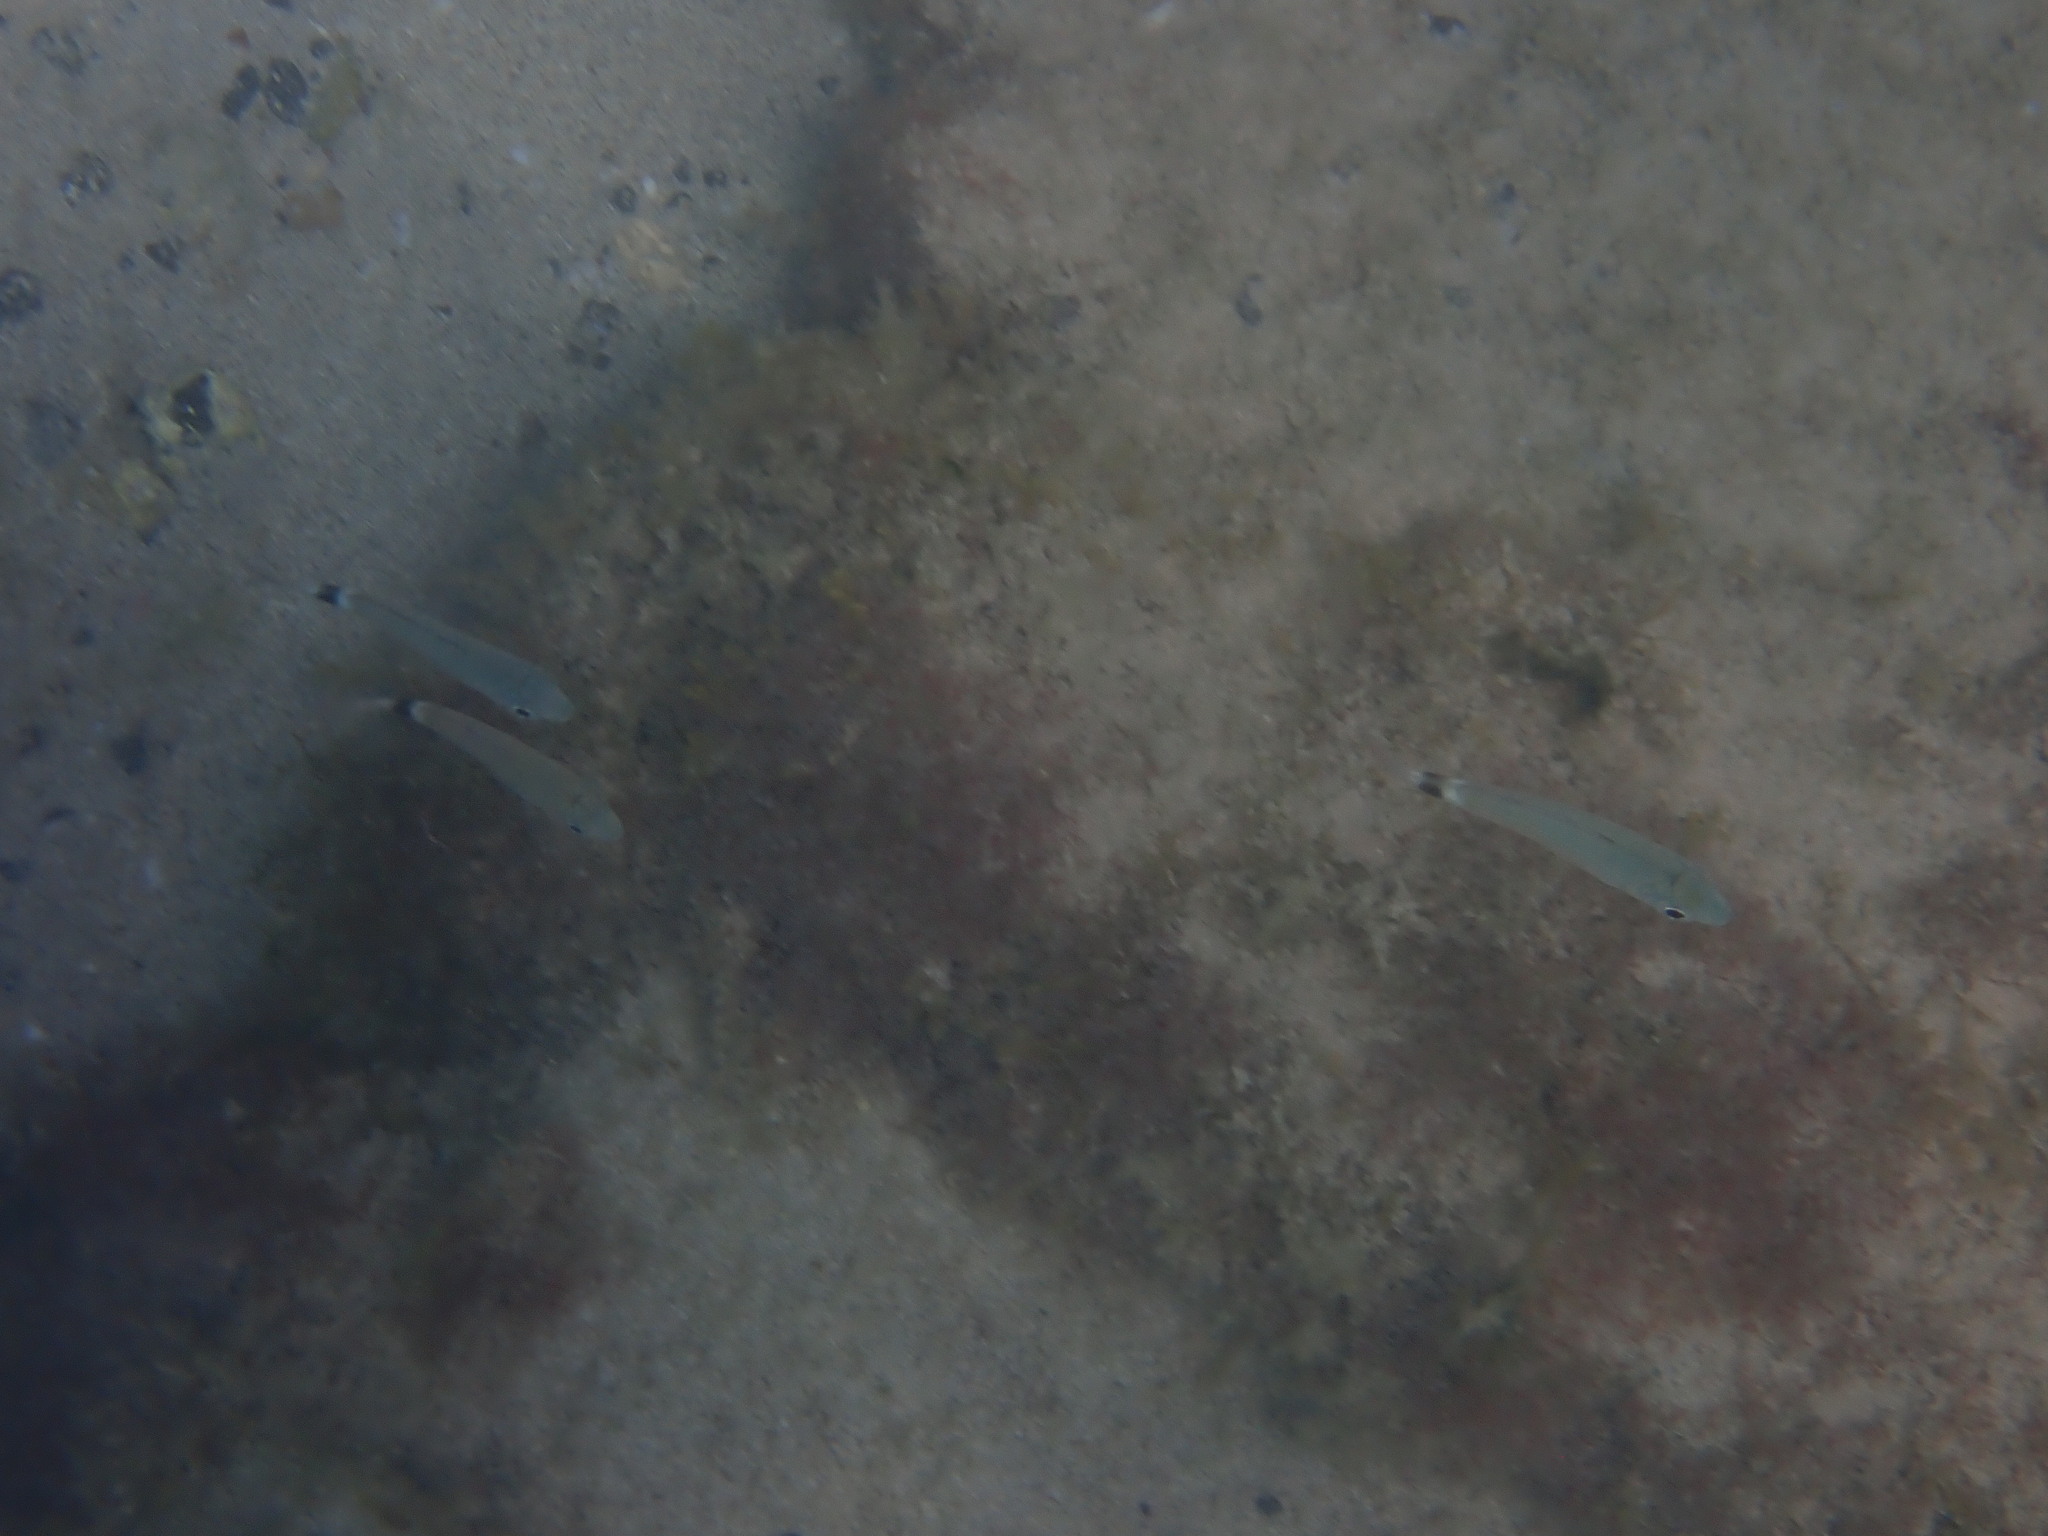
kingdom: Animalia
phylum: Chordata
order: Perciformes
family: Sparidae
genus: Oblada
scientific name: Oblada melanura
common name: Saddled seabream
